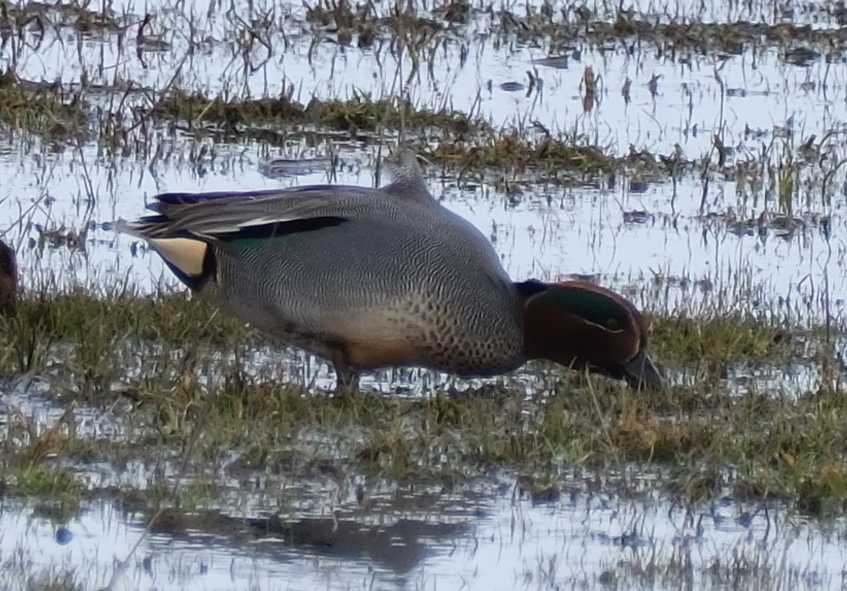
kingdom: Animalia
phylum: Chordata
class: Aves
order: Anseriformes
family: Anatidae
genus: Anas
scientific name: Anas crecca
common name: Eurasian teal
